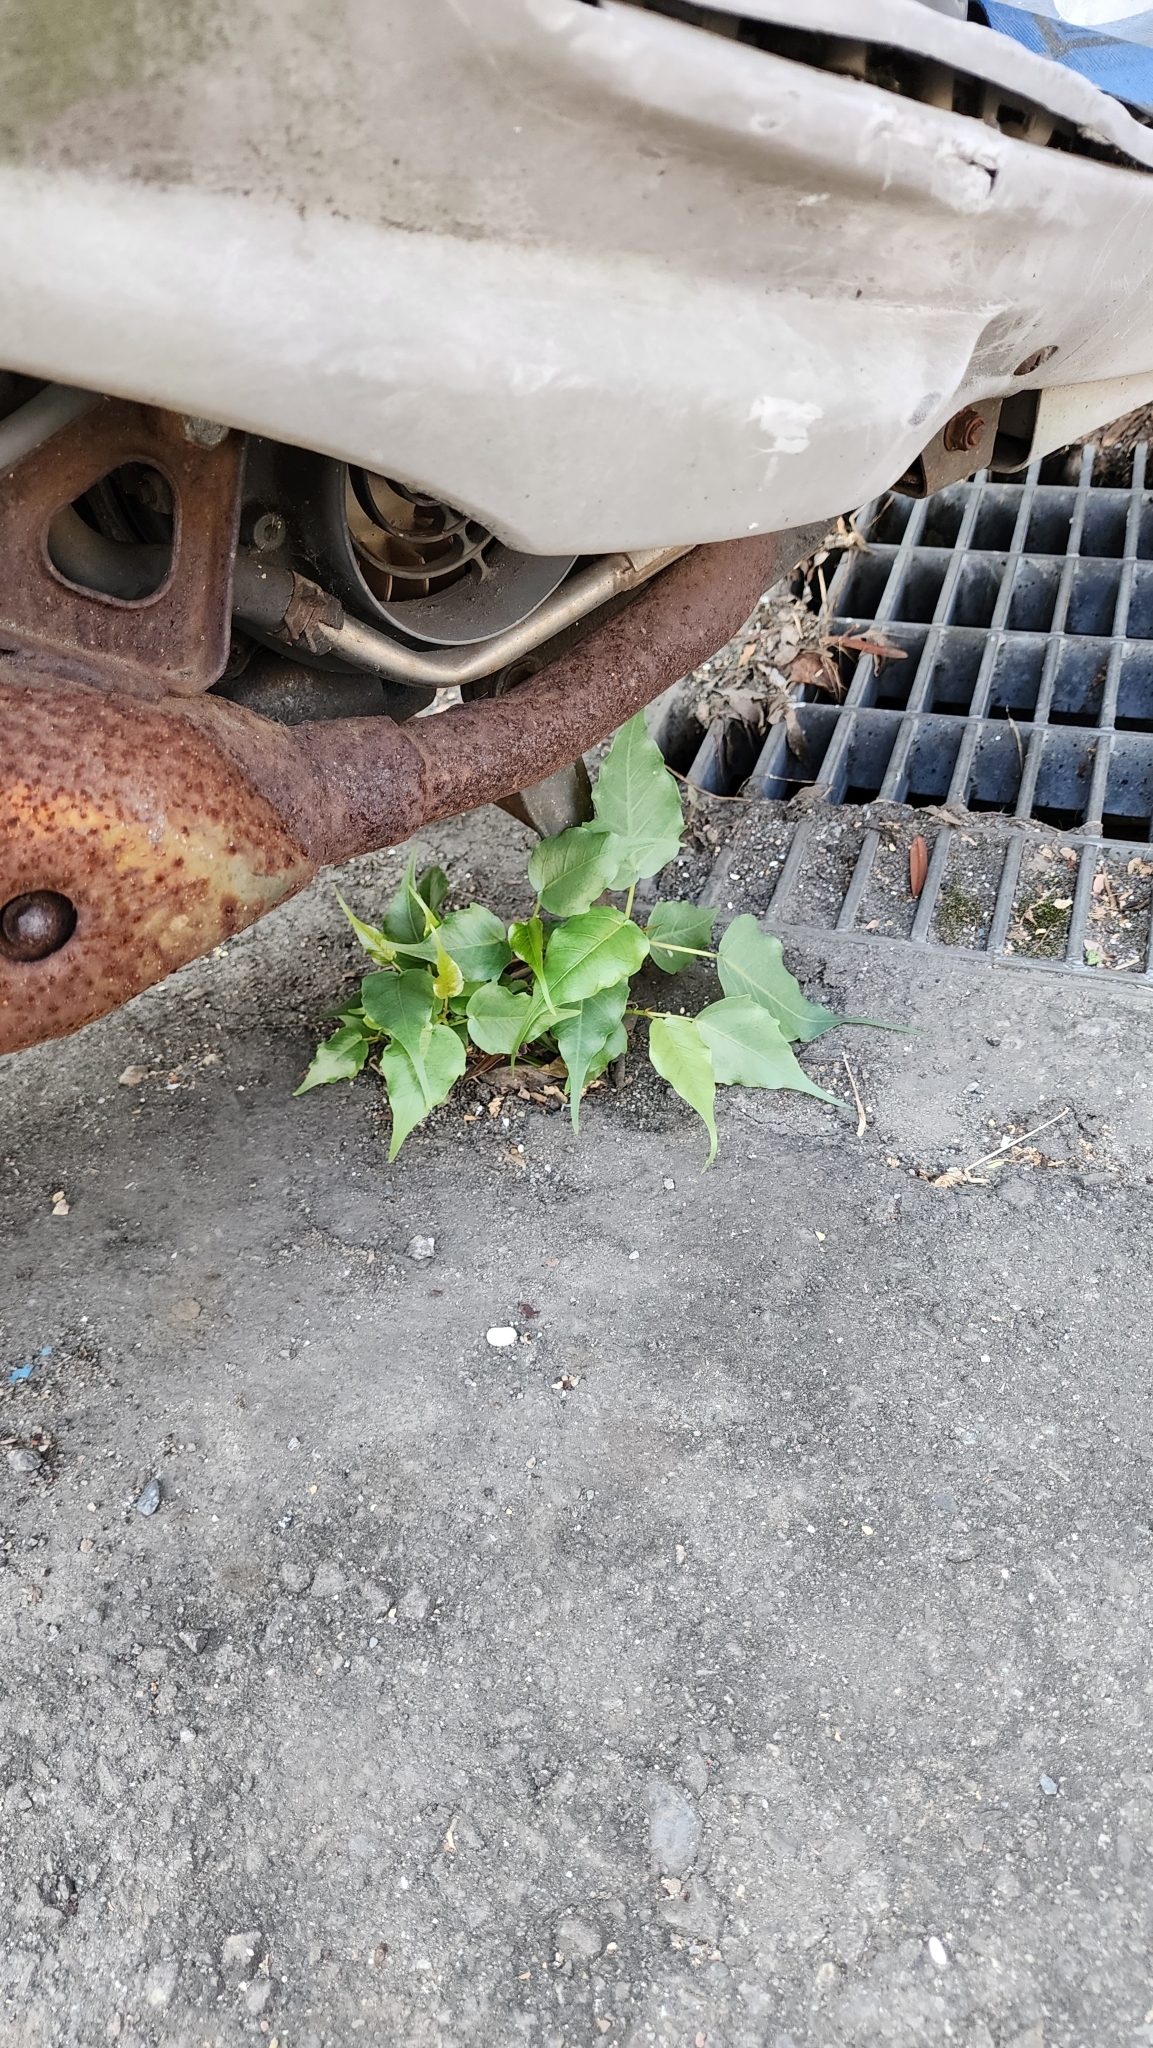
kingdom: Plantae
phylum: Tracheophyta
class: Magnoliopsida
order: Rosales
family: Moraceae
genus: Ficus
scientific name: Ficus religiosa
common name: Bodhi tree
